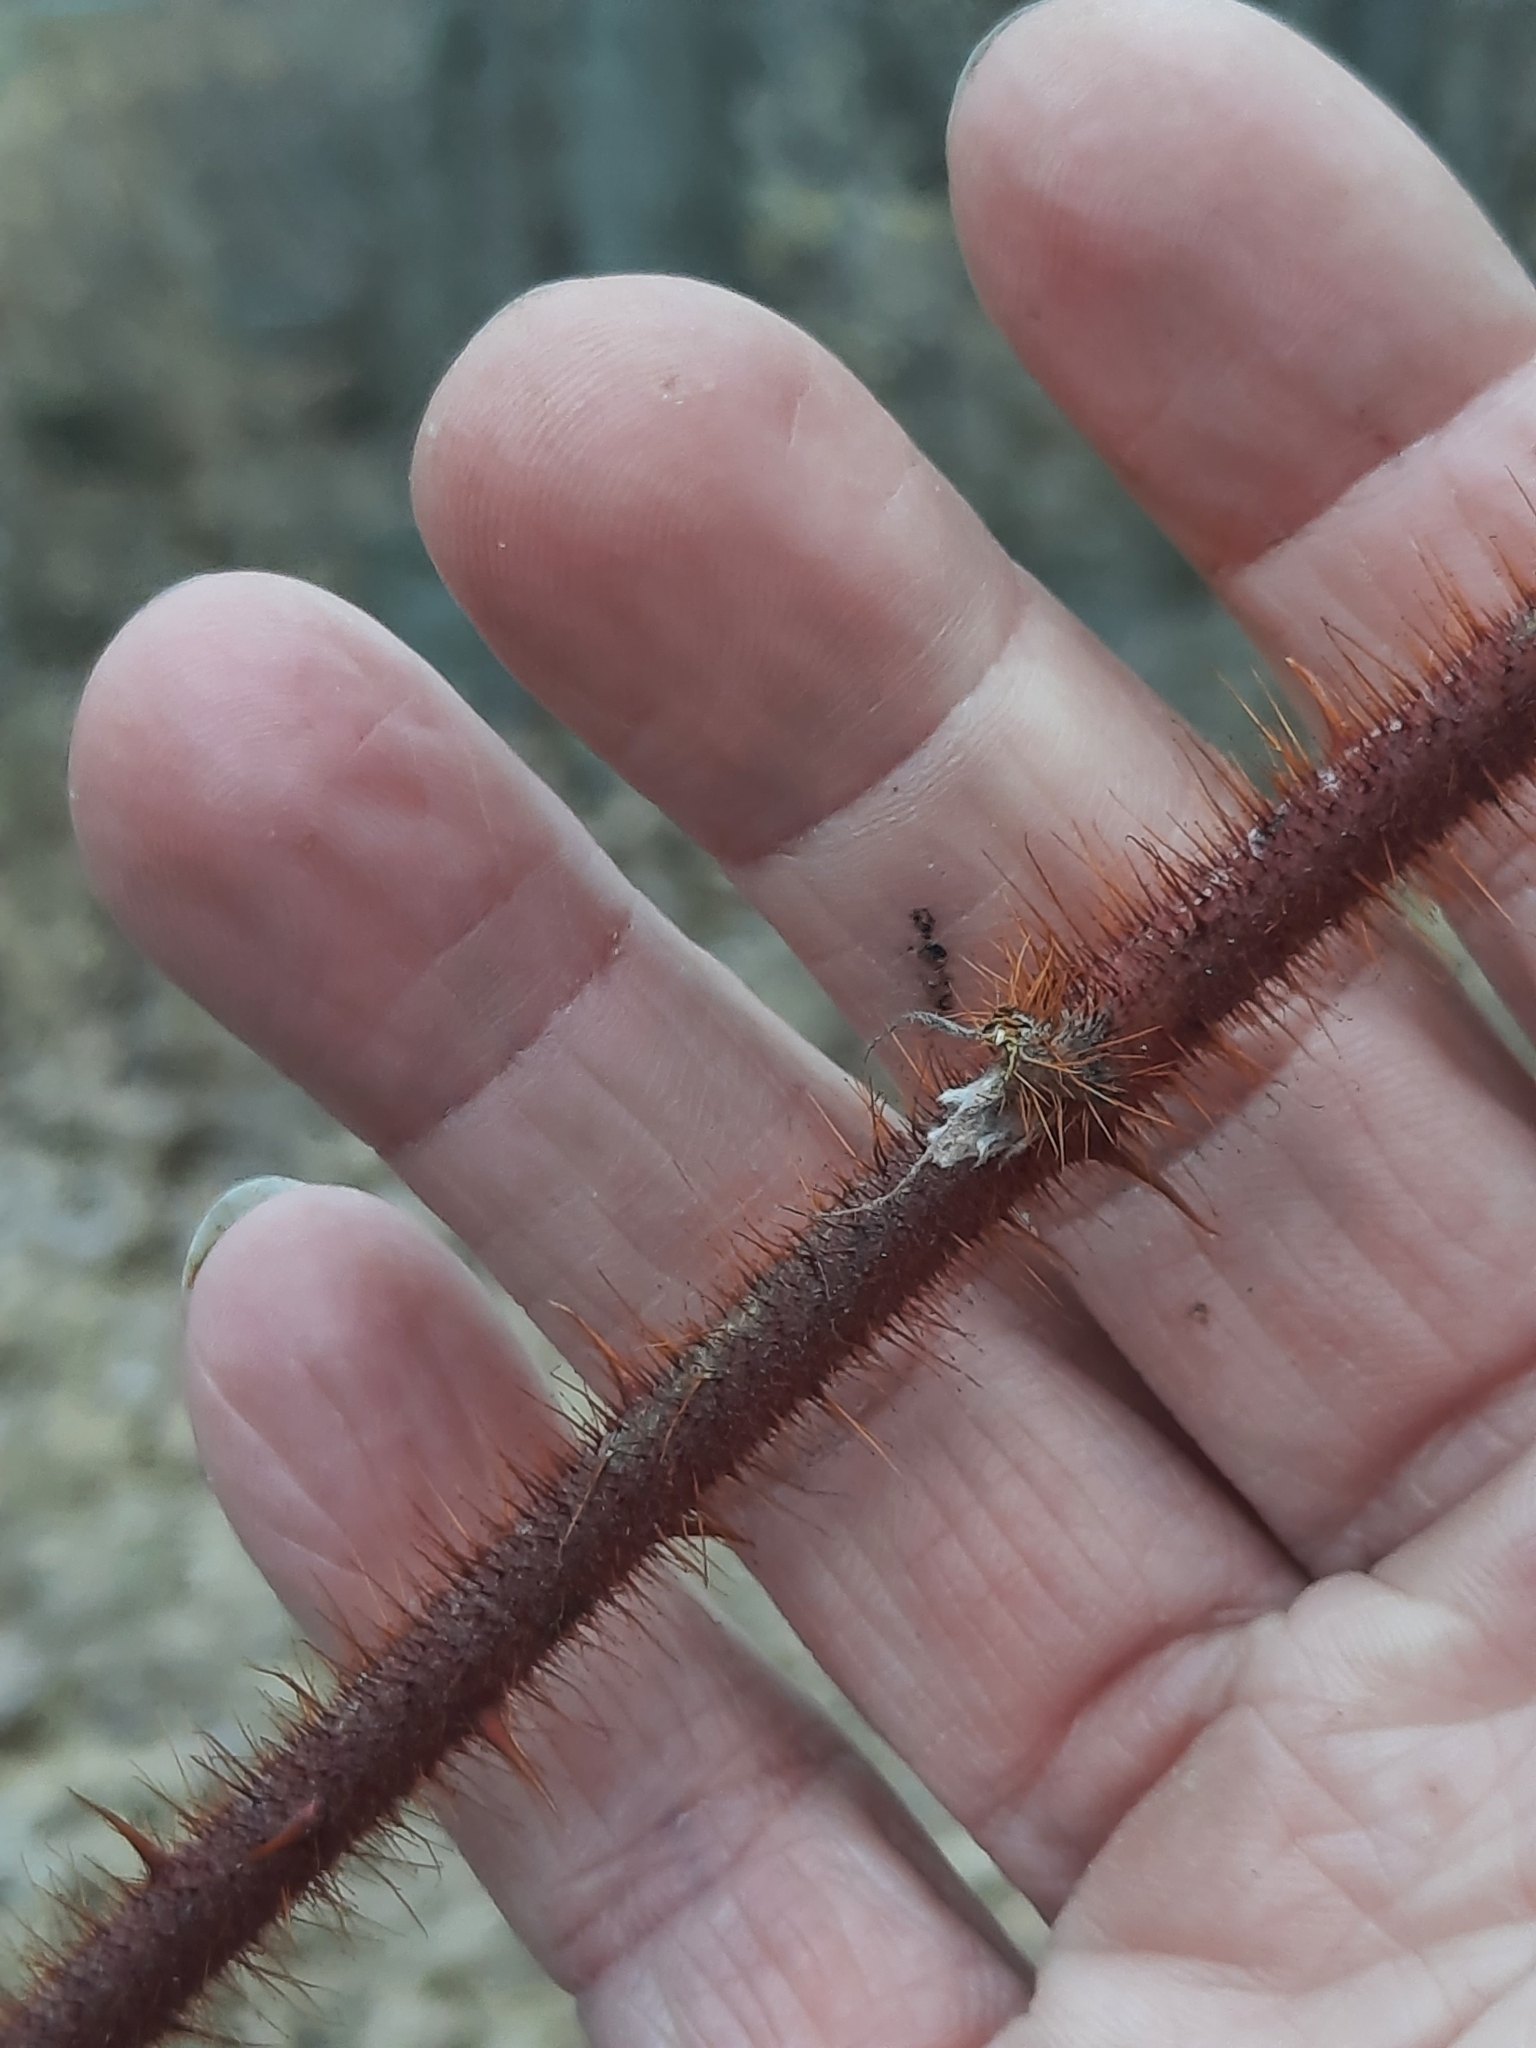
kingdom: Plantae
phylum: Tracheophyta
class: Magnoliopsida
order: Rosales
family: Rosaceae
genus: Rubus
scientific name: Rubus phoenicolasius
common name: Japanese wineberry
